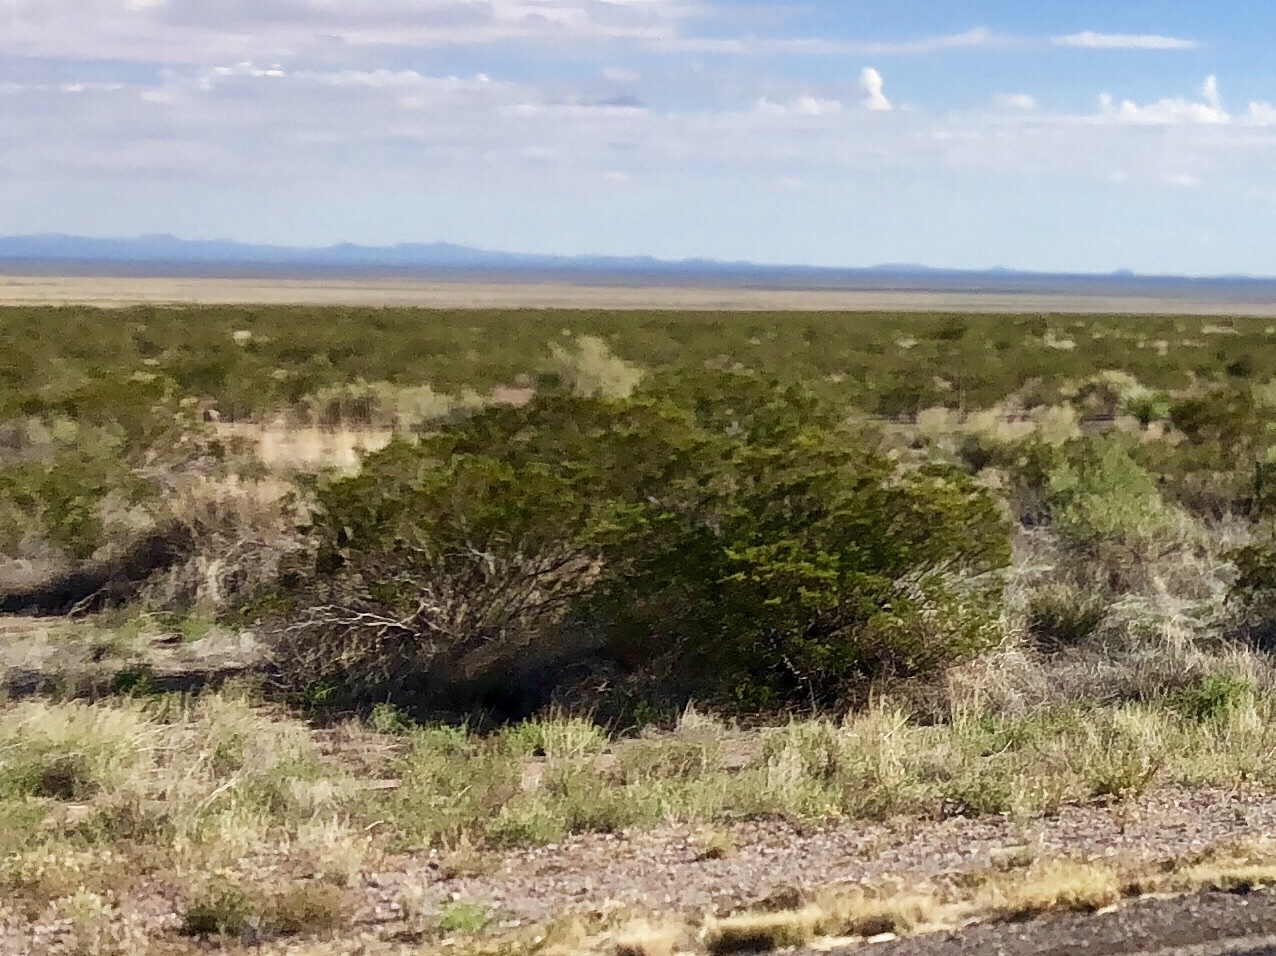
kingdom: Plantae
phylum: Tracheophyta
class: Magnoliopsida
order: Zygophyllales
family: Zygophyllaceae
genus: Larrea
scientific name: Larrea tridentata
